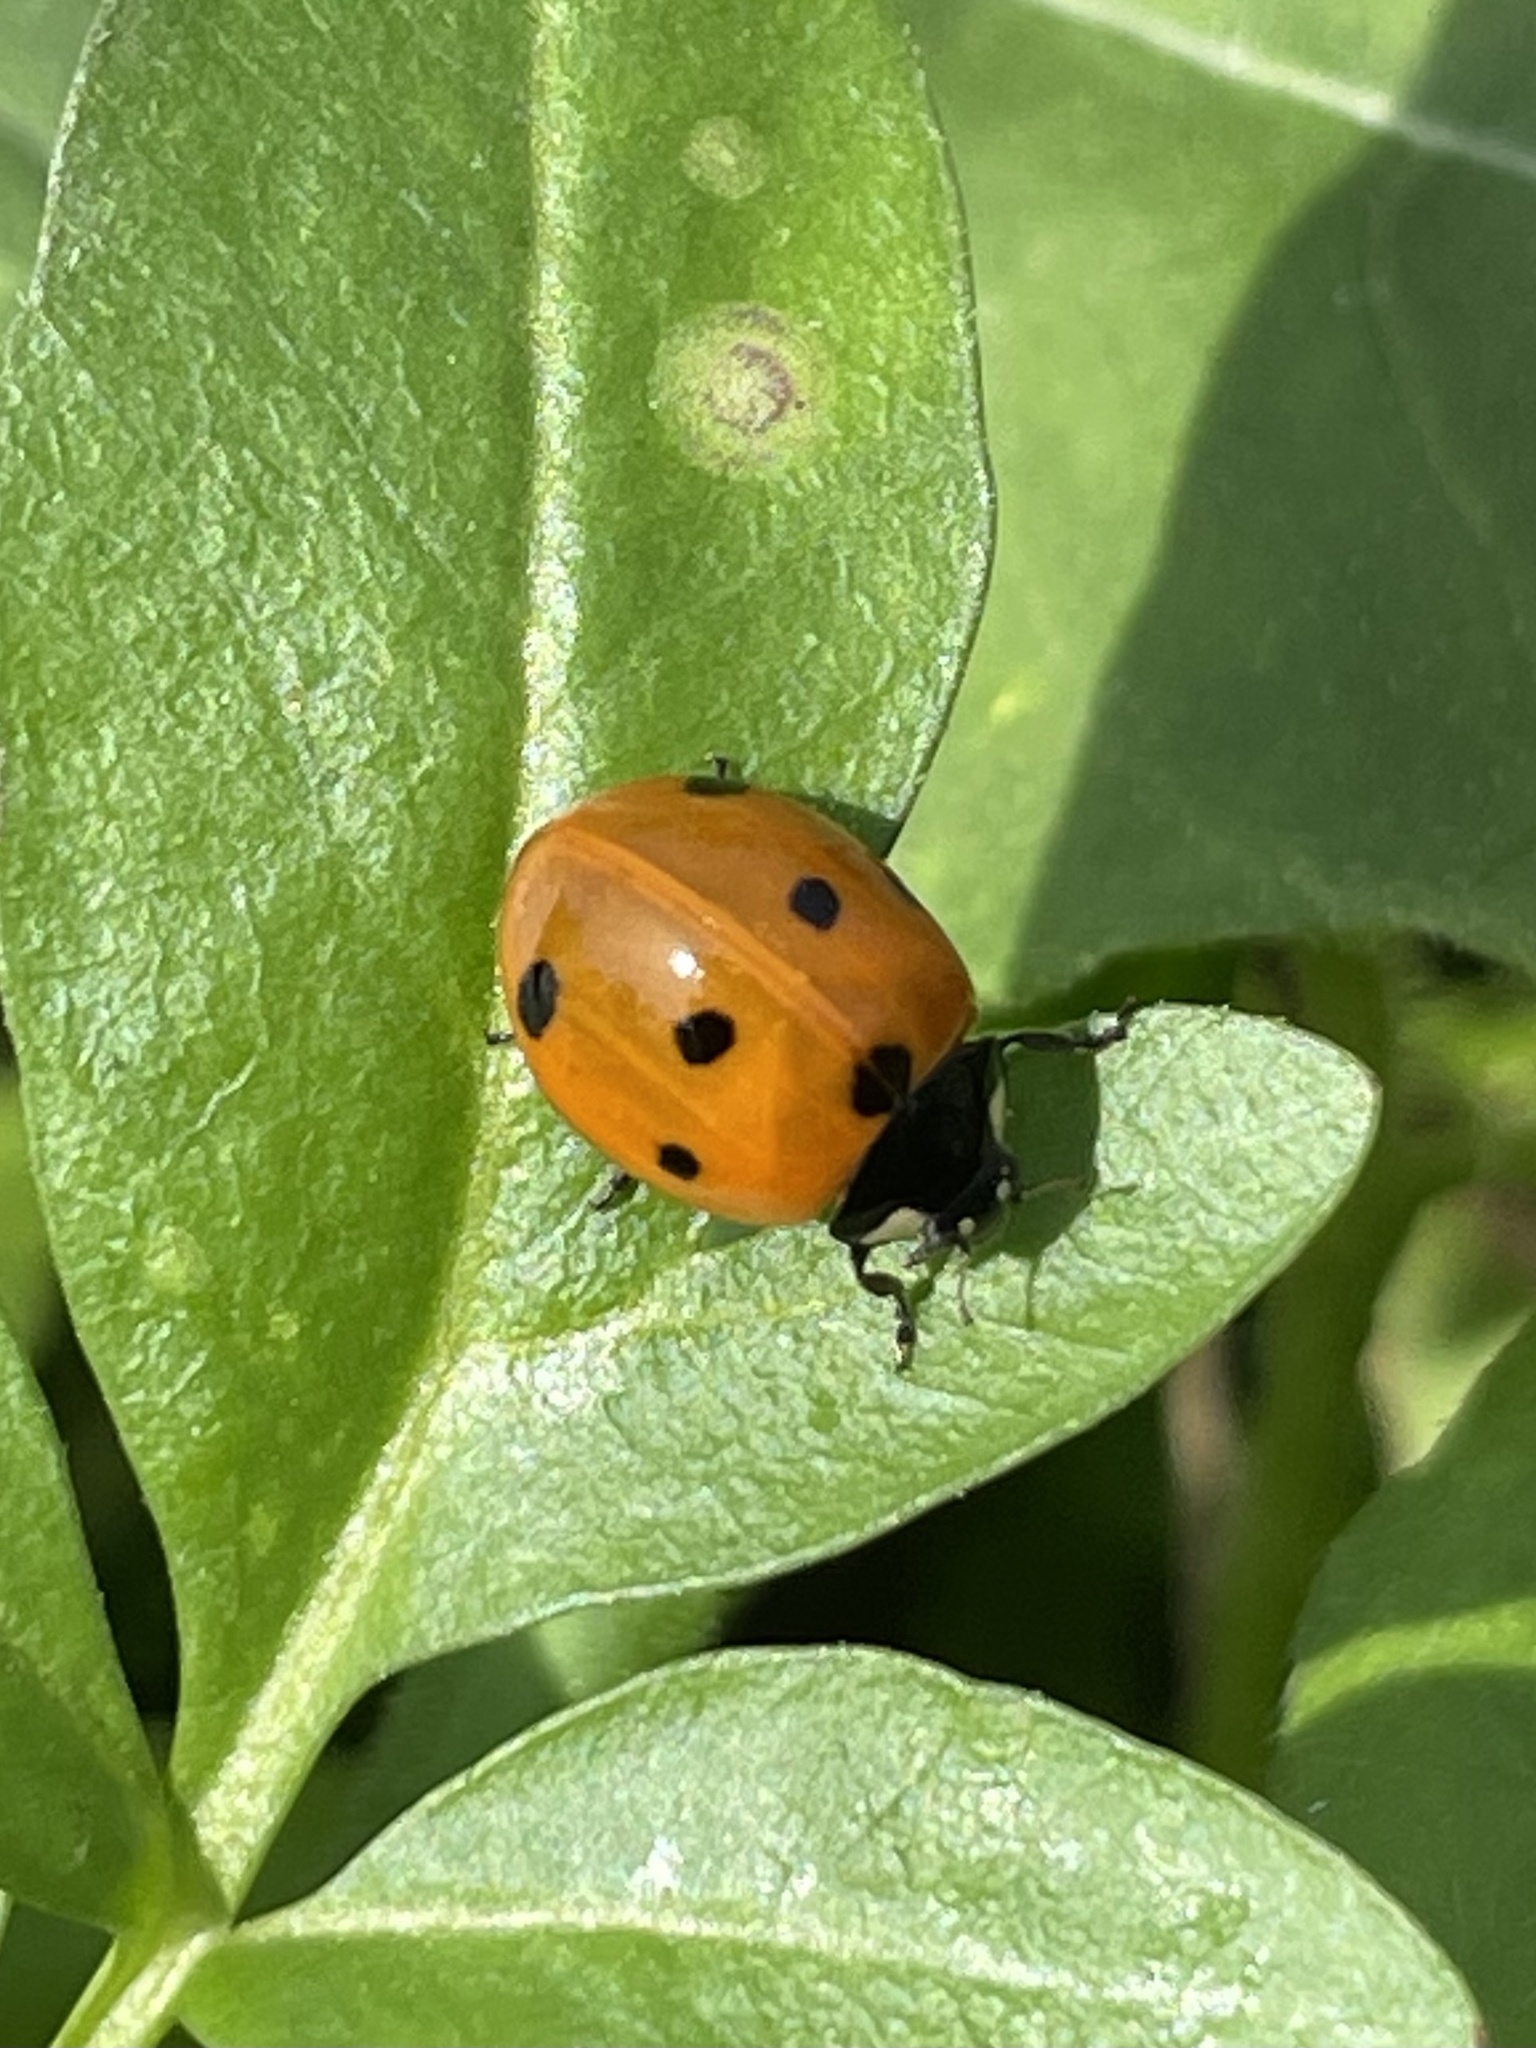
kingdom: Animalia
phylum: Arthropoda
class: Insecta
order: Coleoptera
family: Coccinellidae
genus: Coccinella
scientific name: Coccinella septempunctata
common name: Sevenspotted lady beetle
